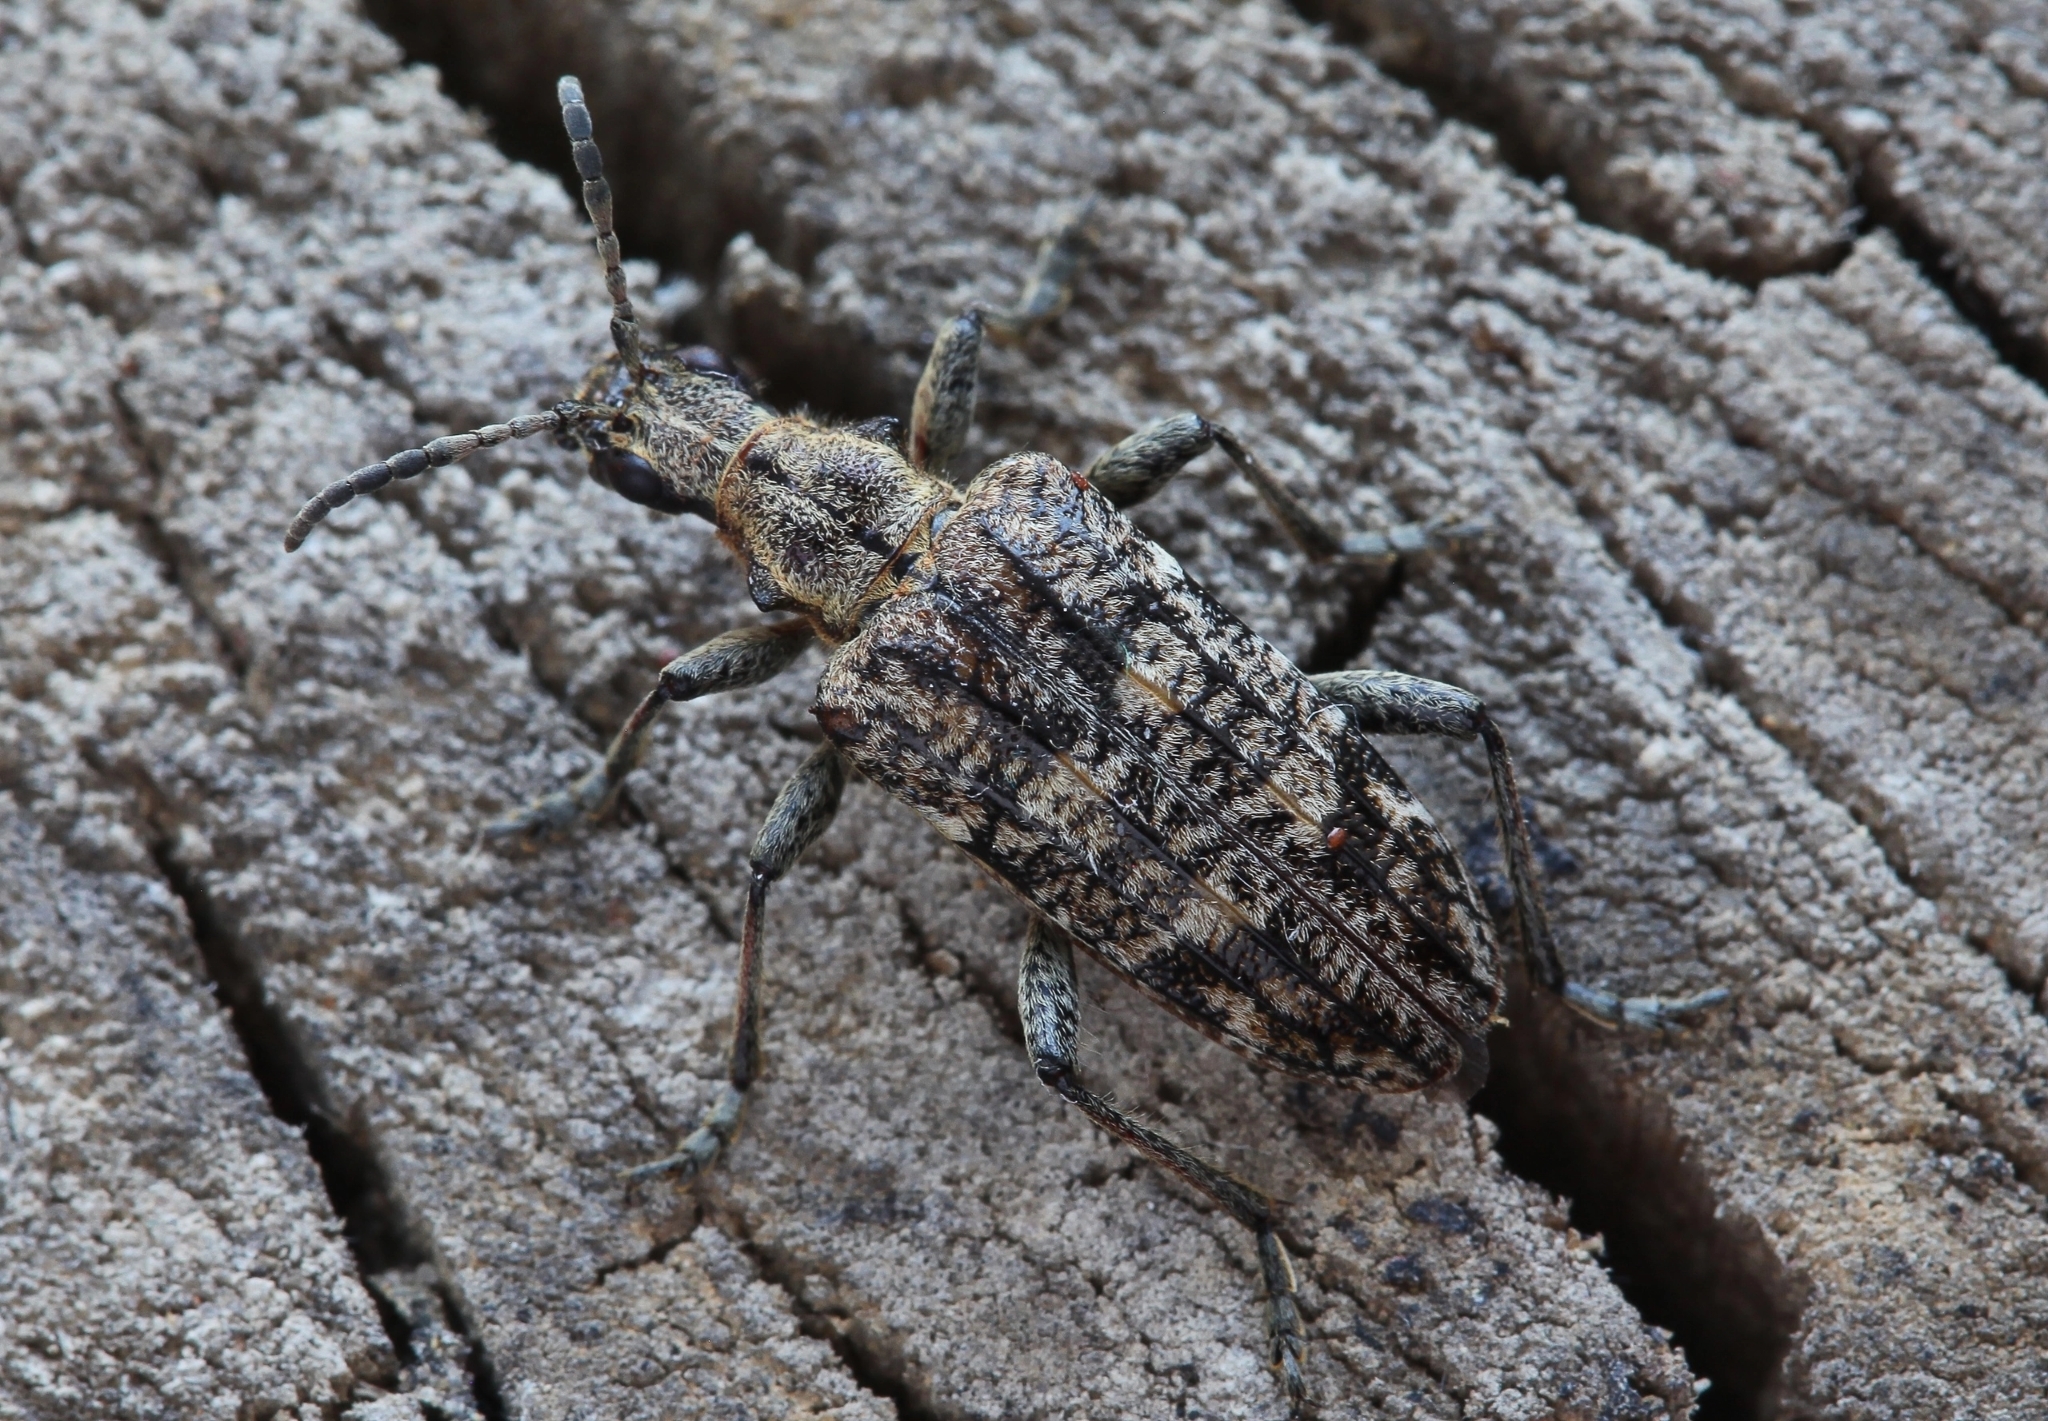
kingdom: Animalia
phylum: Arthropoda
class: Insecta
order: Coleoptera
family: Cerambycidae
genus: Rhagium
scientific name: Rhagium inquisitor
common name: Ribbed pine borer
